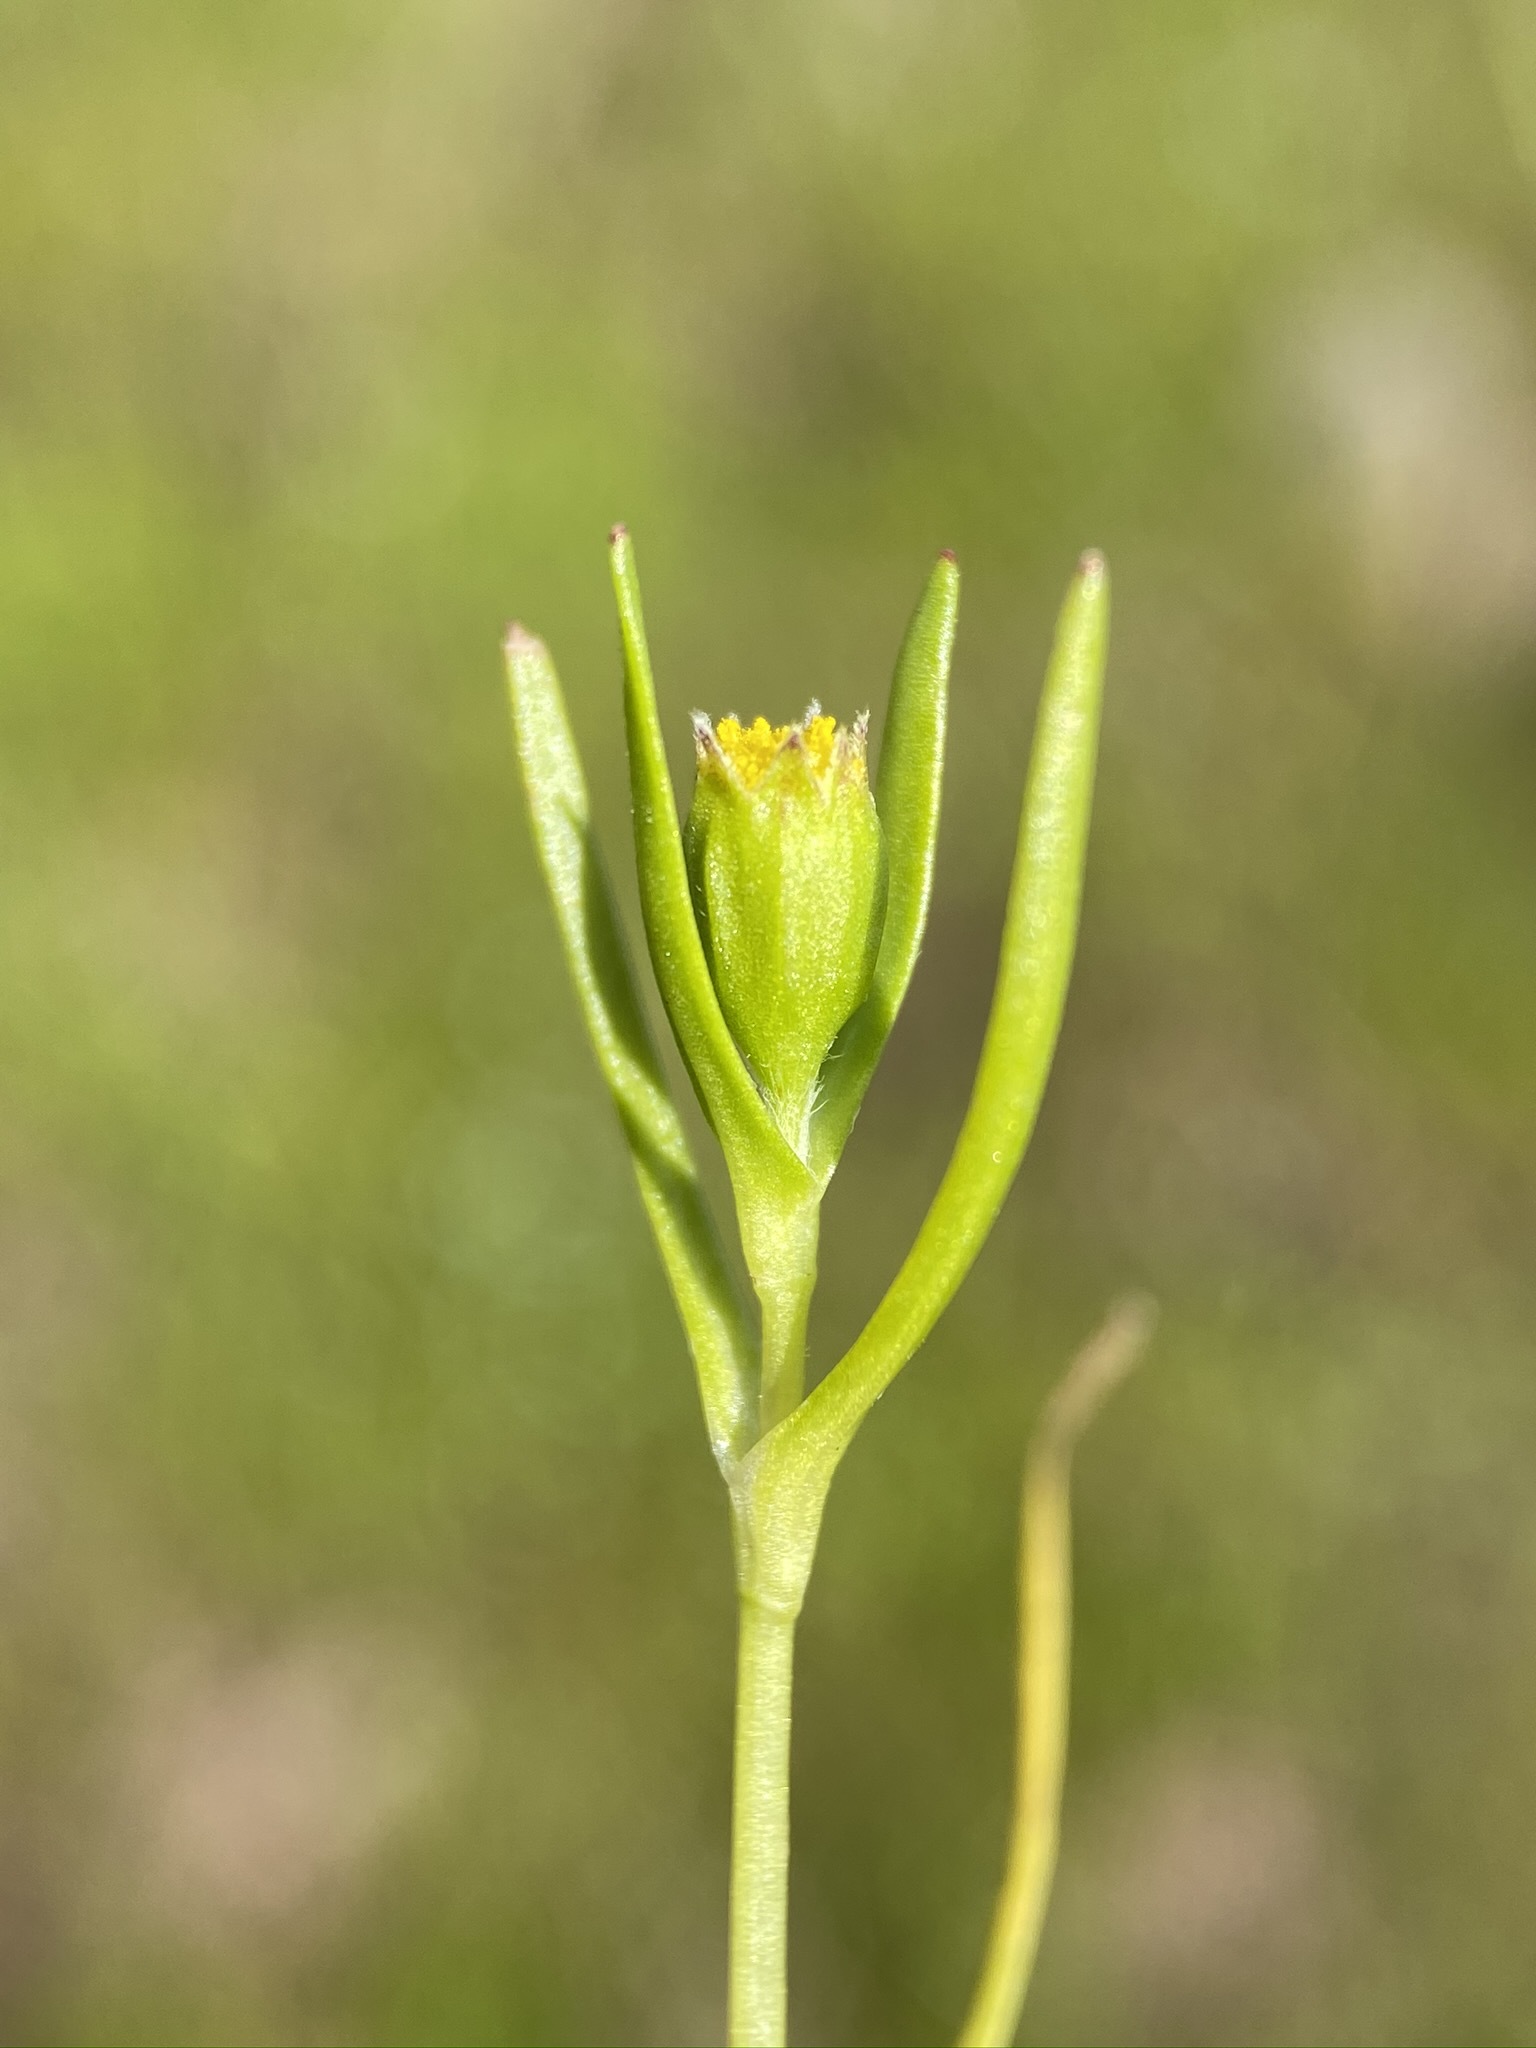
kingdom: Plantae
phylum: Tracheophyta
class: Magnoliopsida
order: Asterales
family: Asteraceae
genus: Lasthenia
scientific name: Lasthenia glaberrima
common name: Smooth goldfields
